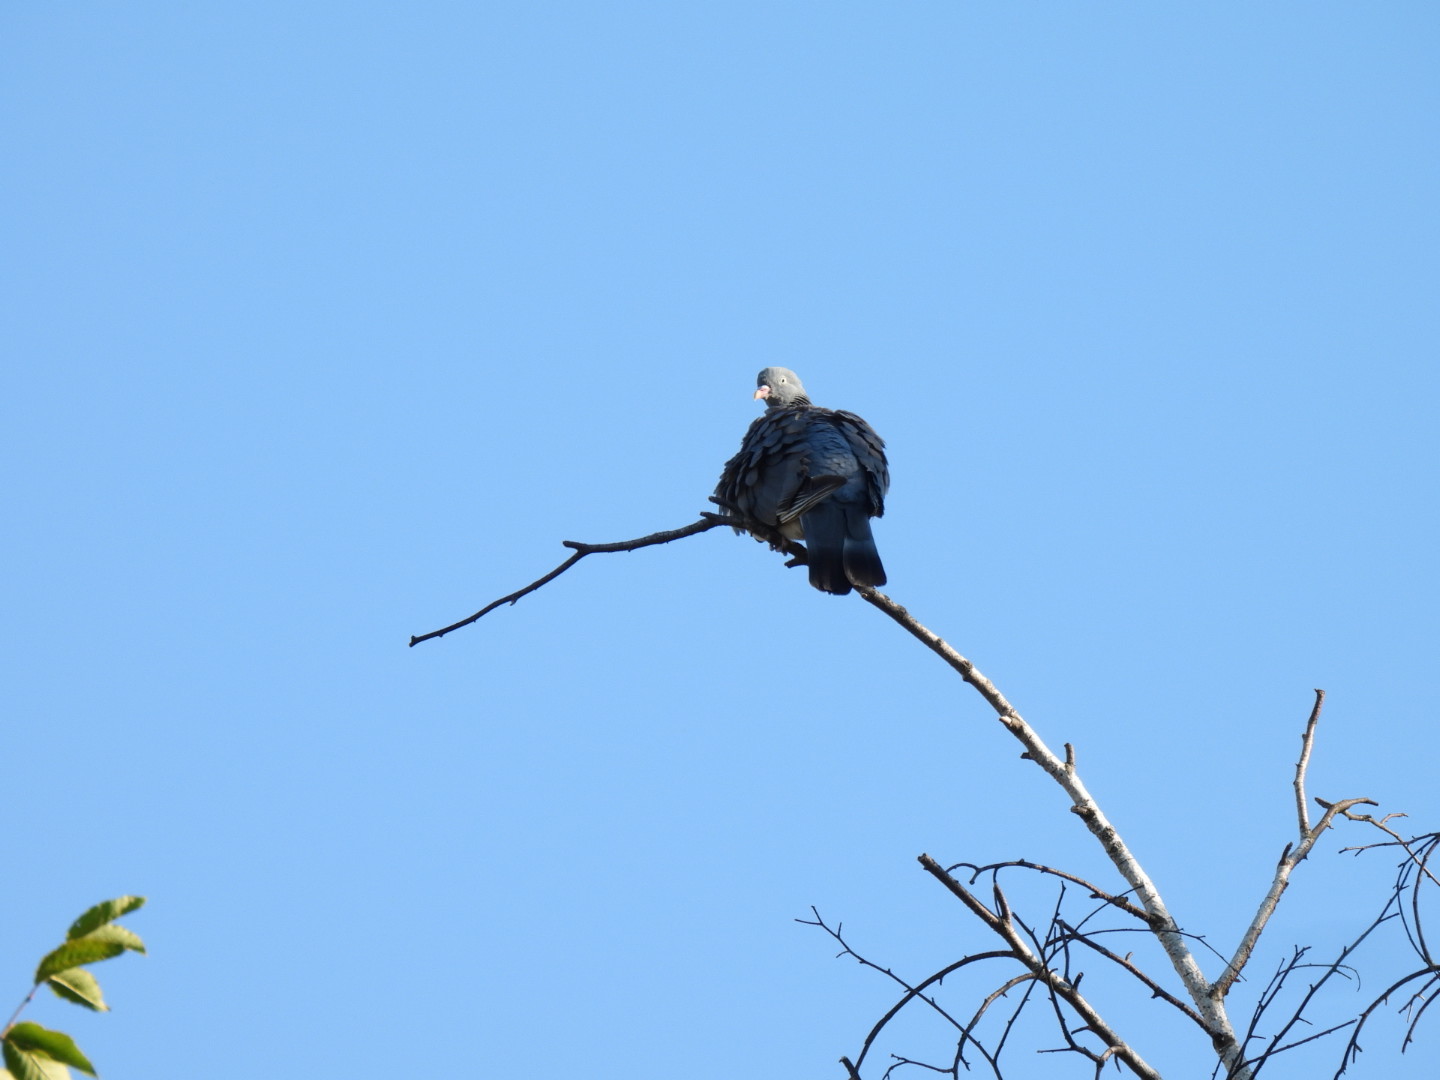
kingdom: Animalia
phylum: Chordata
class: Aves
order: Columbiformes
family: Columbidae
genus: Columba
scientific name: Columba palumbus
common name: Common wood pigeon
